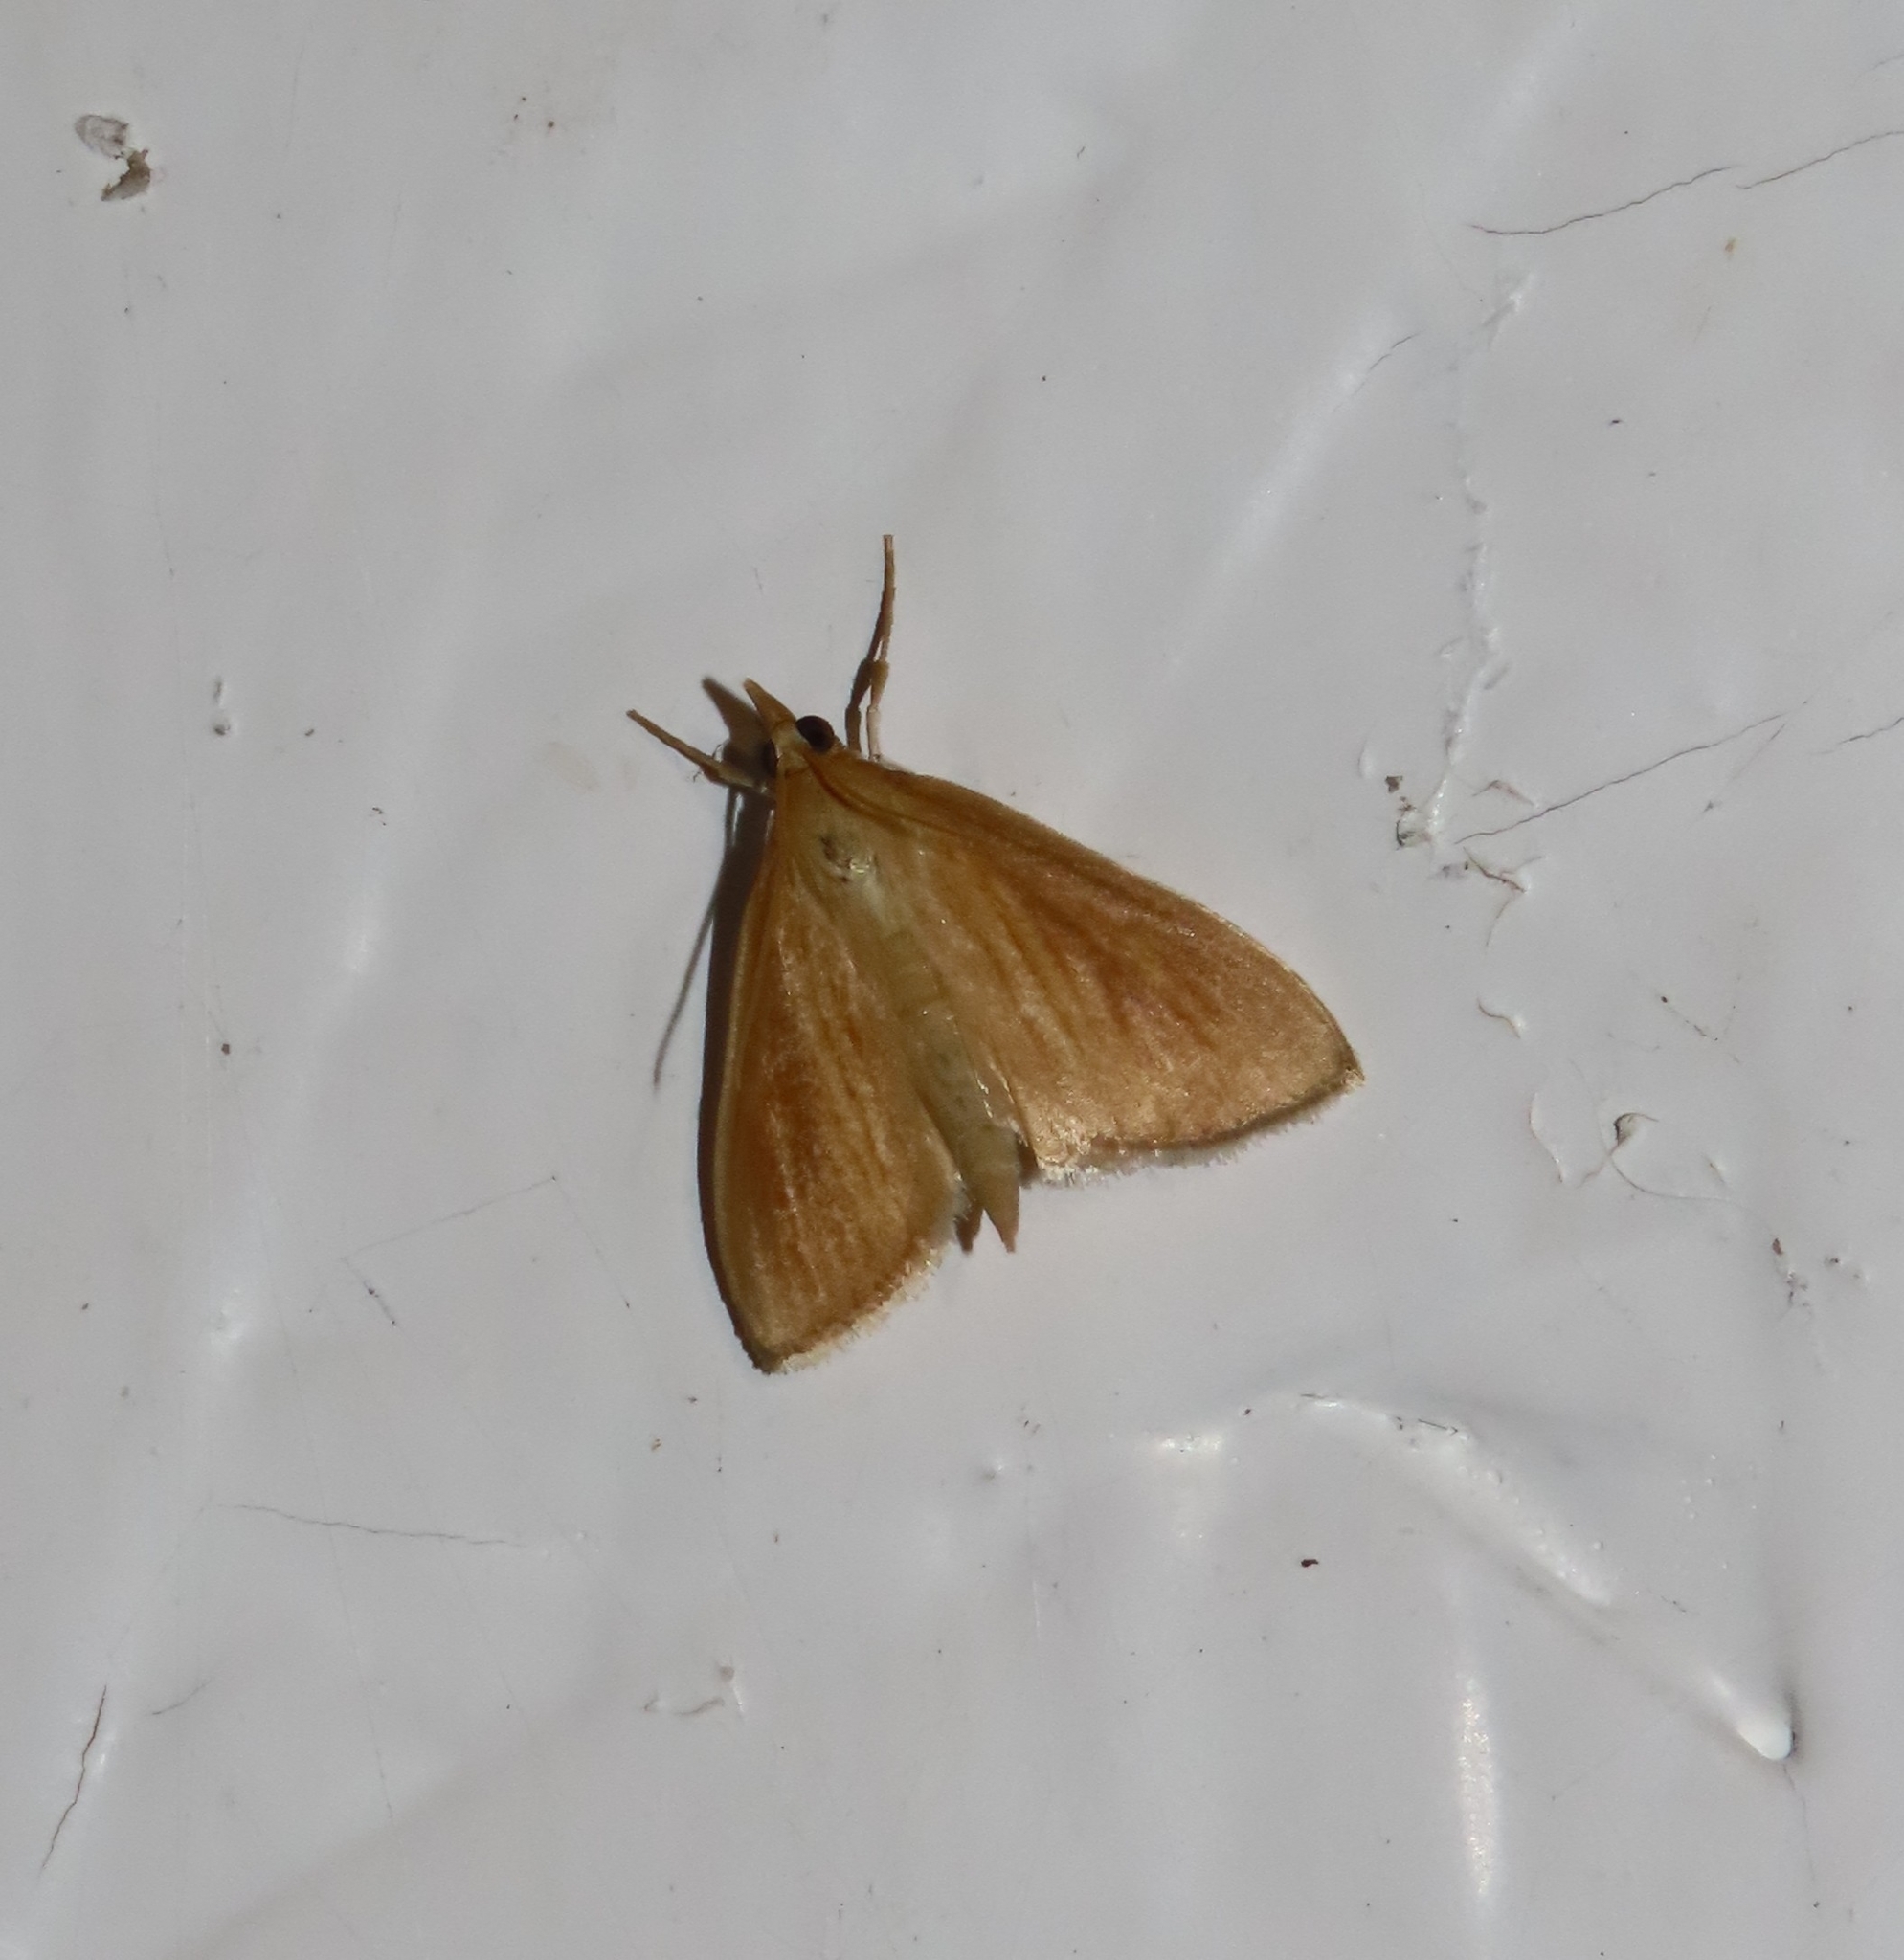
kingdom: Animalia
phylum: Arthropoda
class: Insecta
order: Lepidoptera
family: Crambidae
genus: Nascia
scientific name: Nascia acutellus
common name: Streaked orange moth
